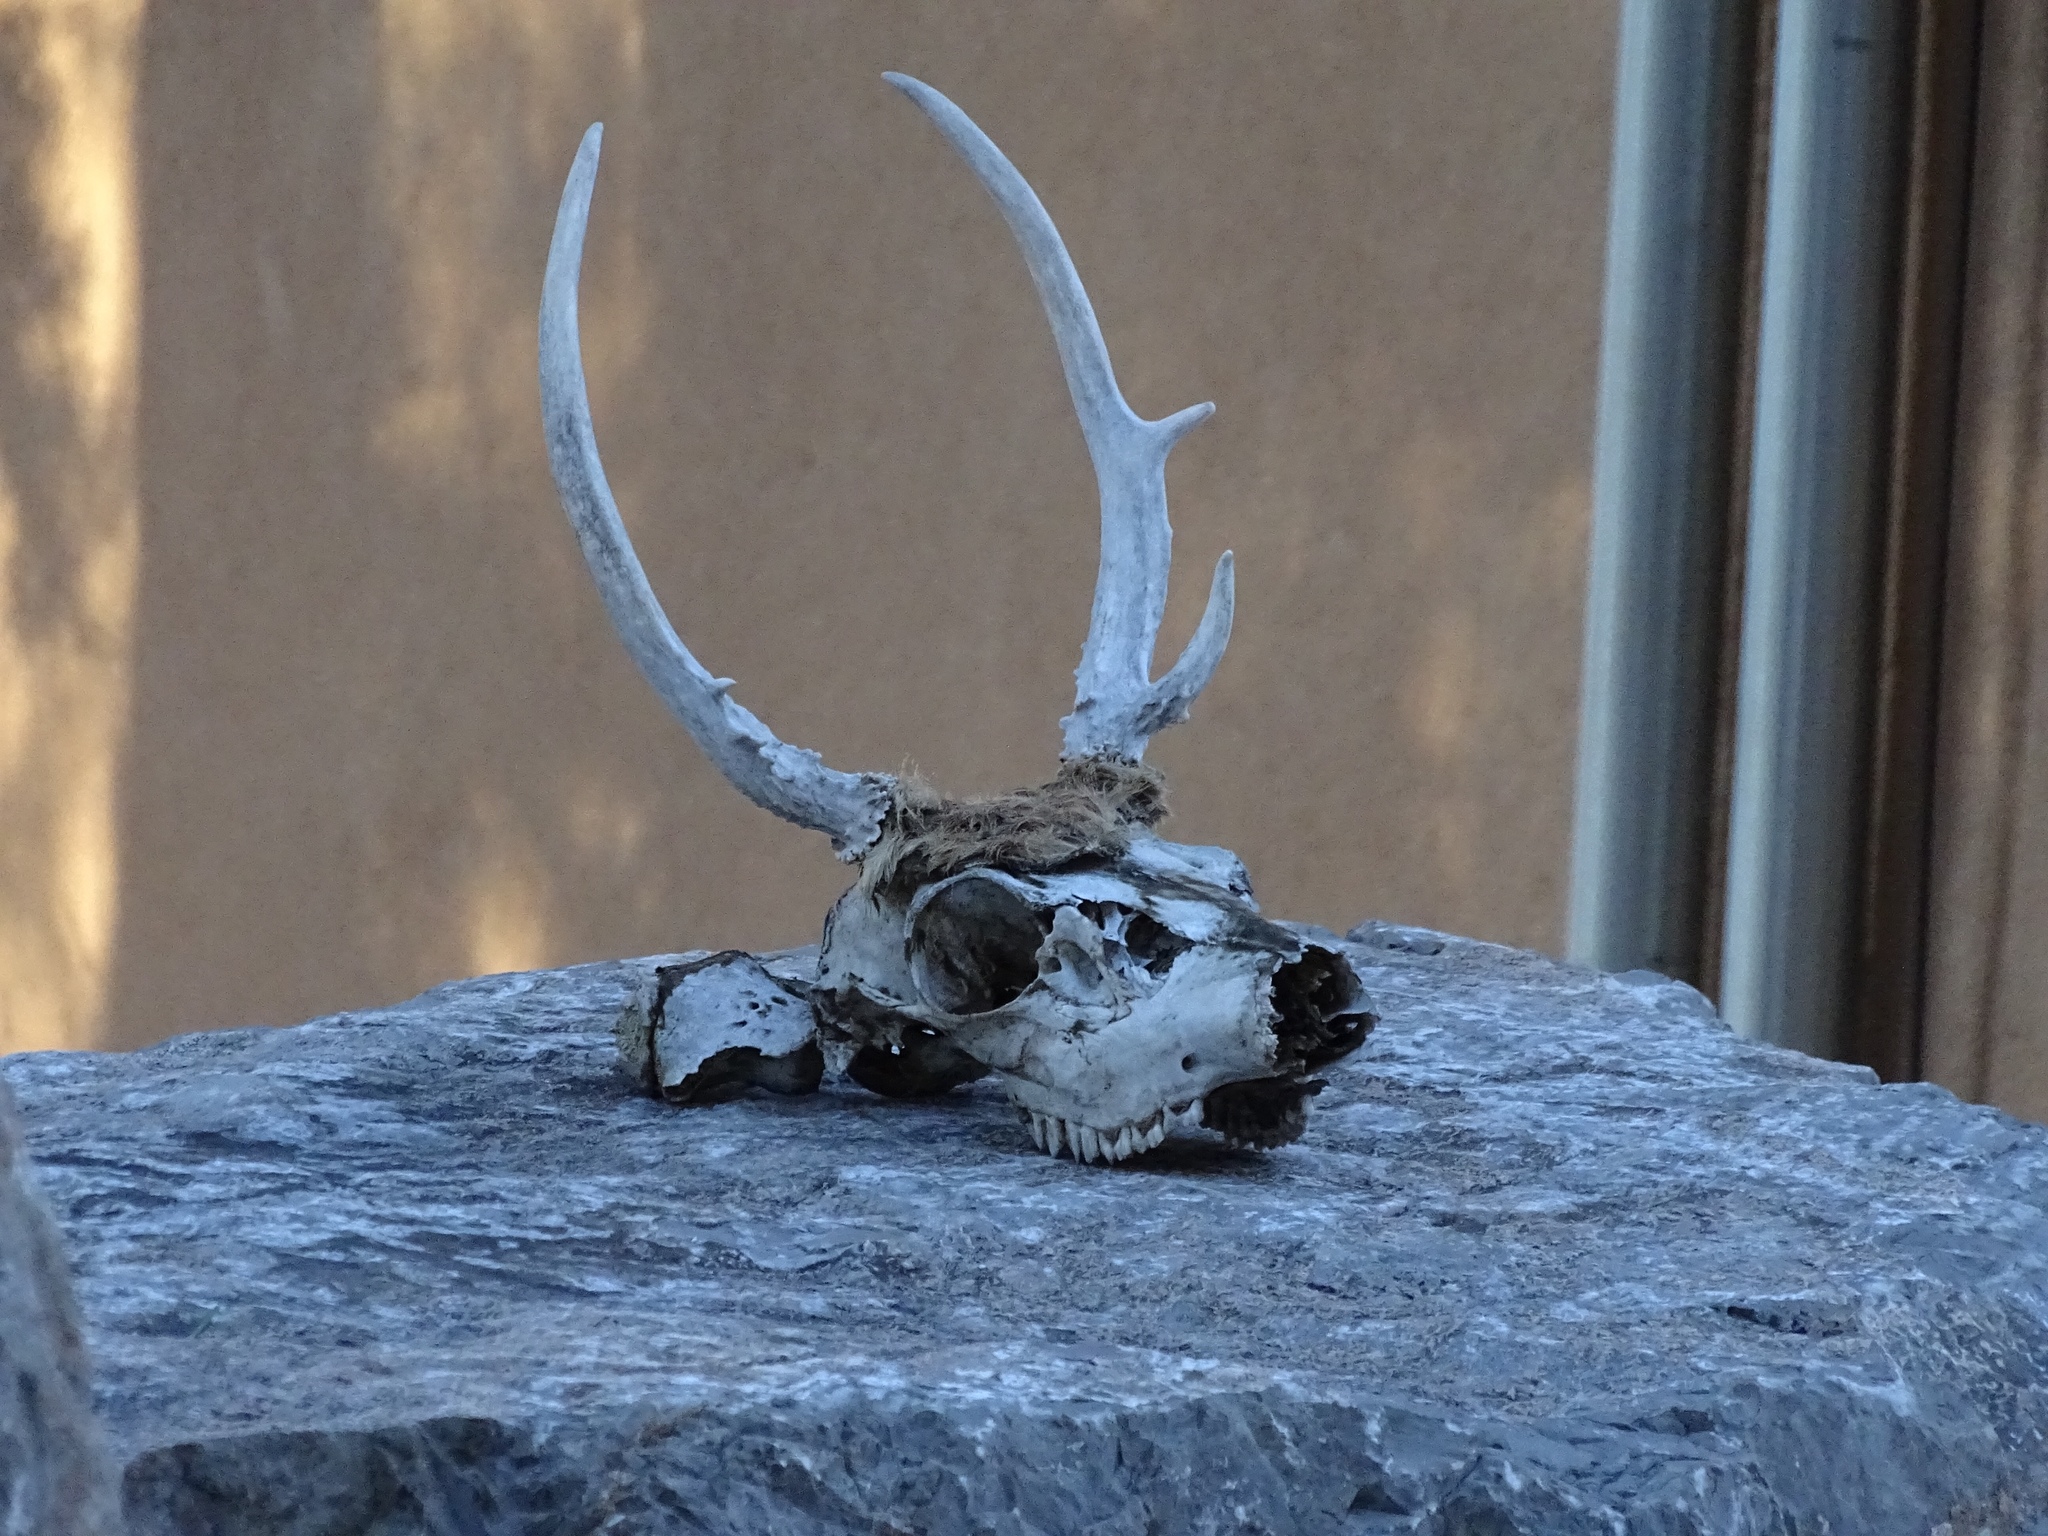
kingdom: Animalia
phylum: Chordata
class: Mammalia
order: Artiodactyla
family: Cervidae
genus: Odocoileus
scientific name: Odocoileus hemionus
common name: Mule deer
